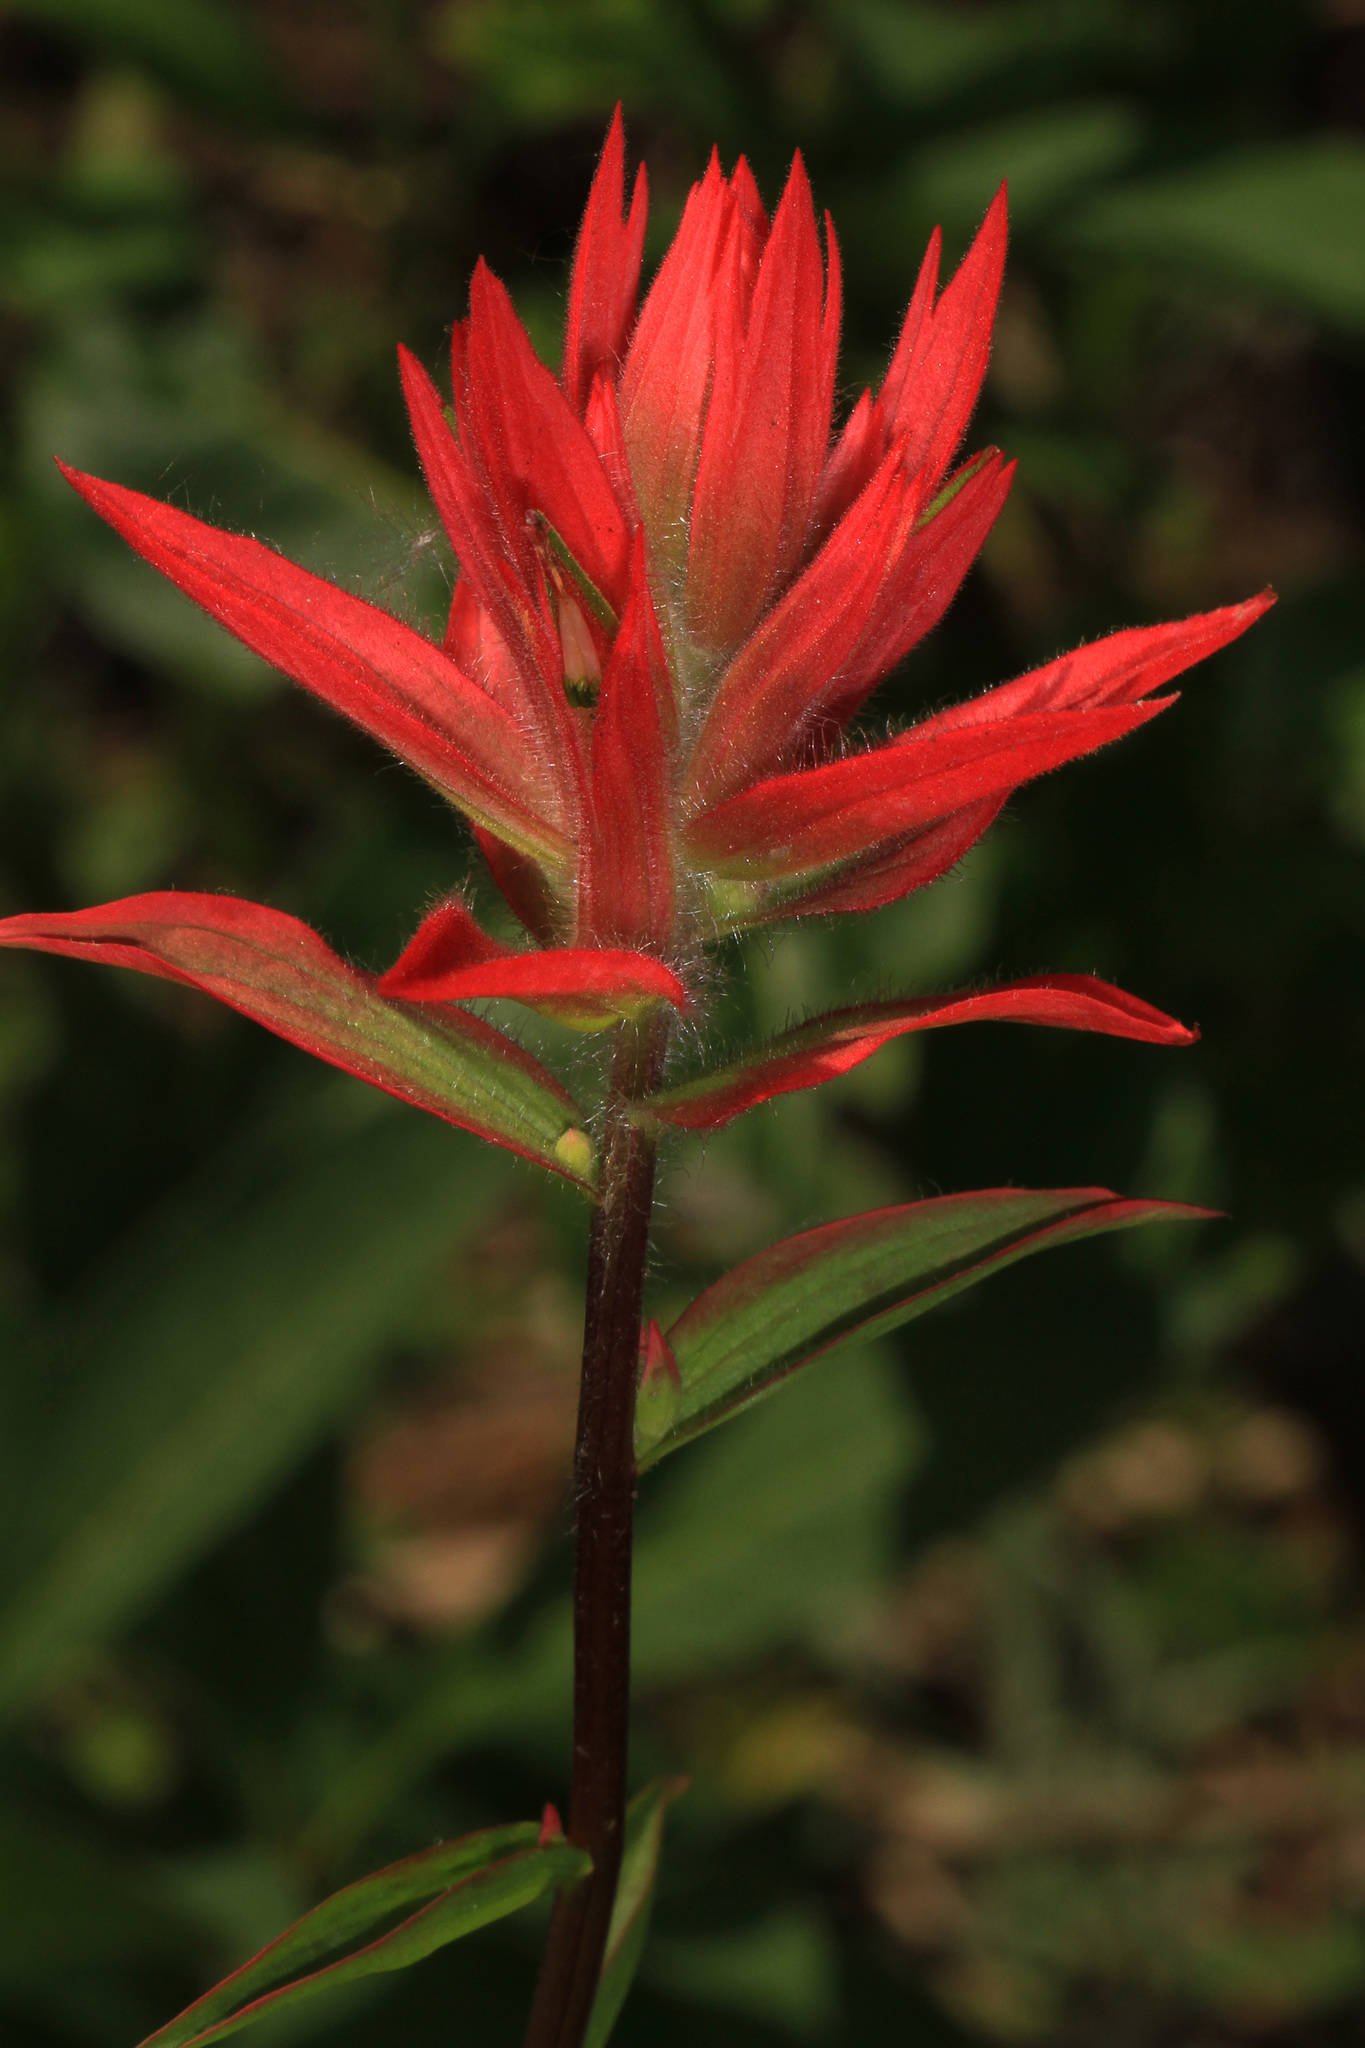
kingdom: Plantae
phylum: Tracheophyta
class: Magnoliopsida
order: Lamiales
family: Orobanchaceae
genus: Castilleja
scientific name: Castilleja miniata
